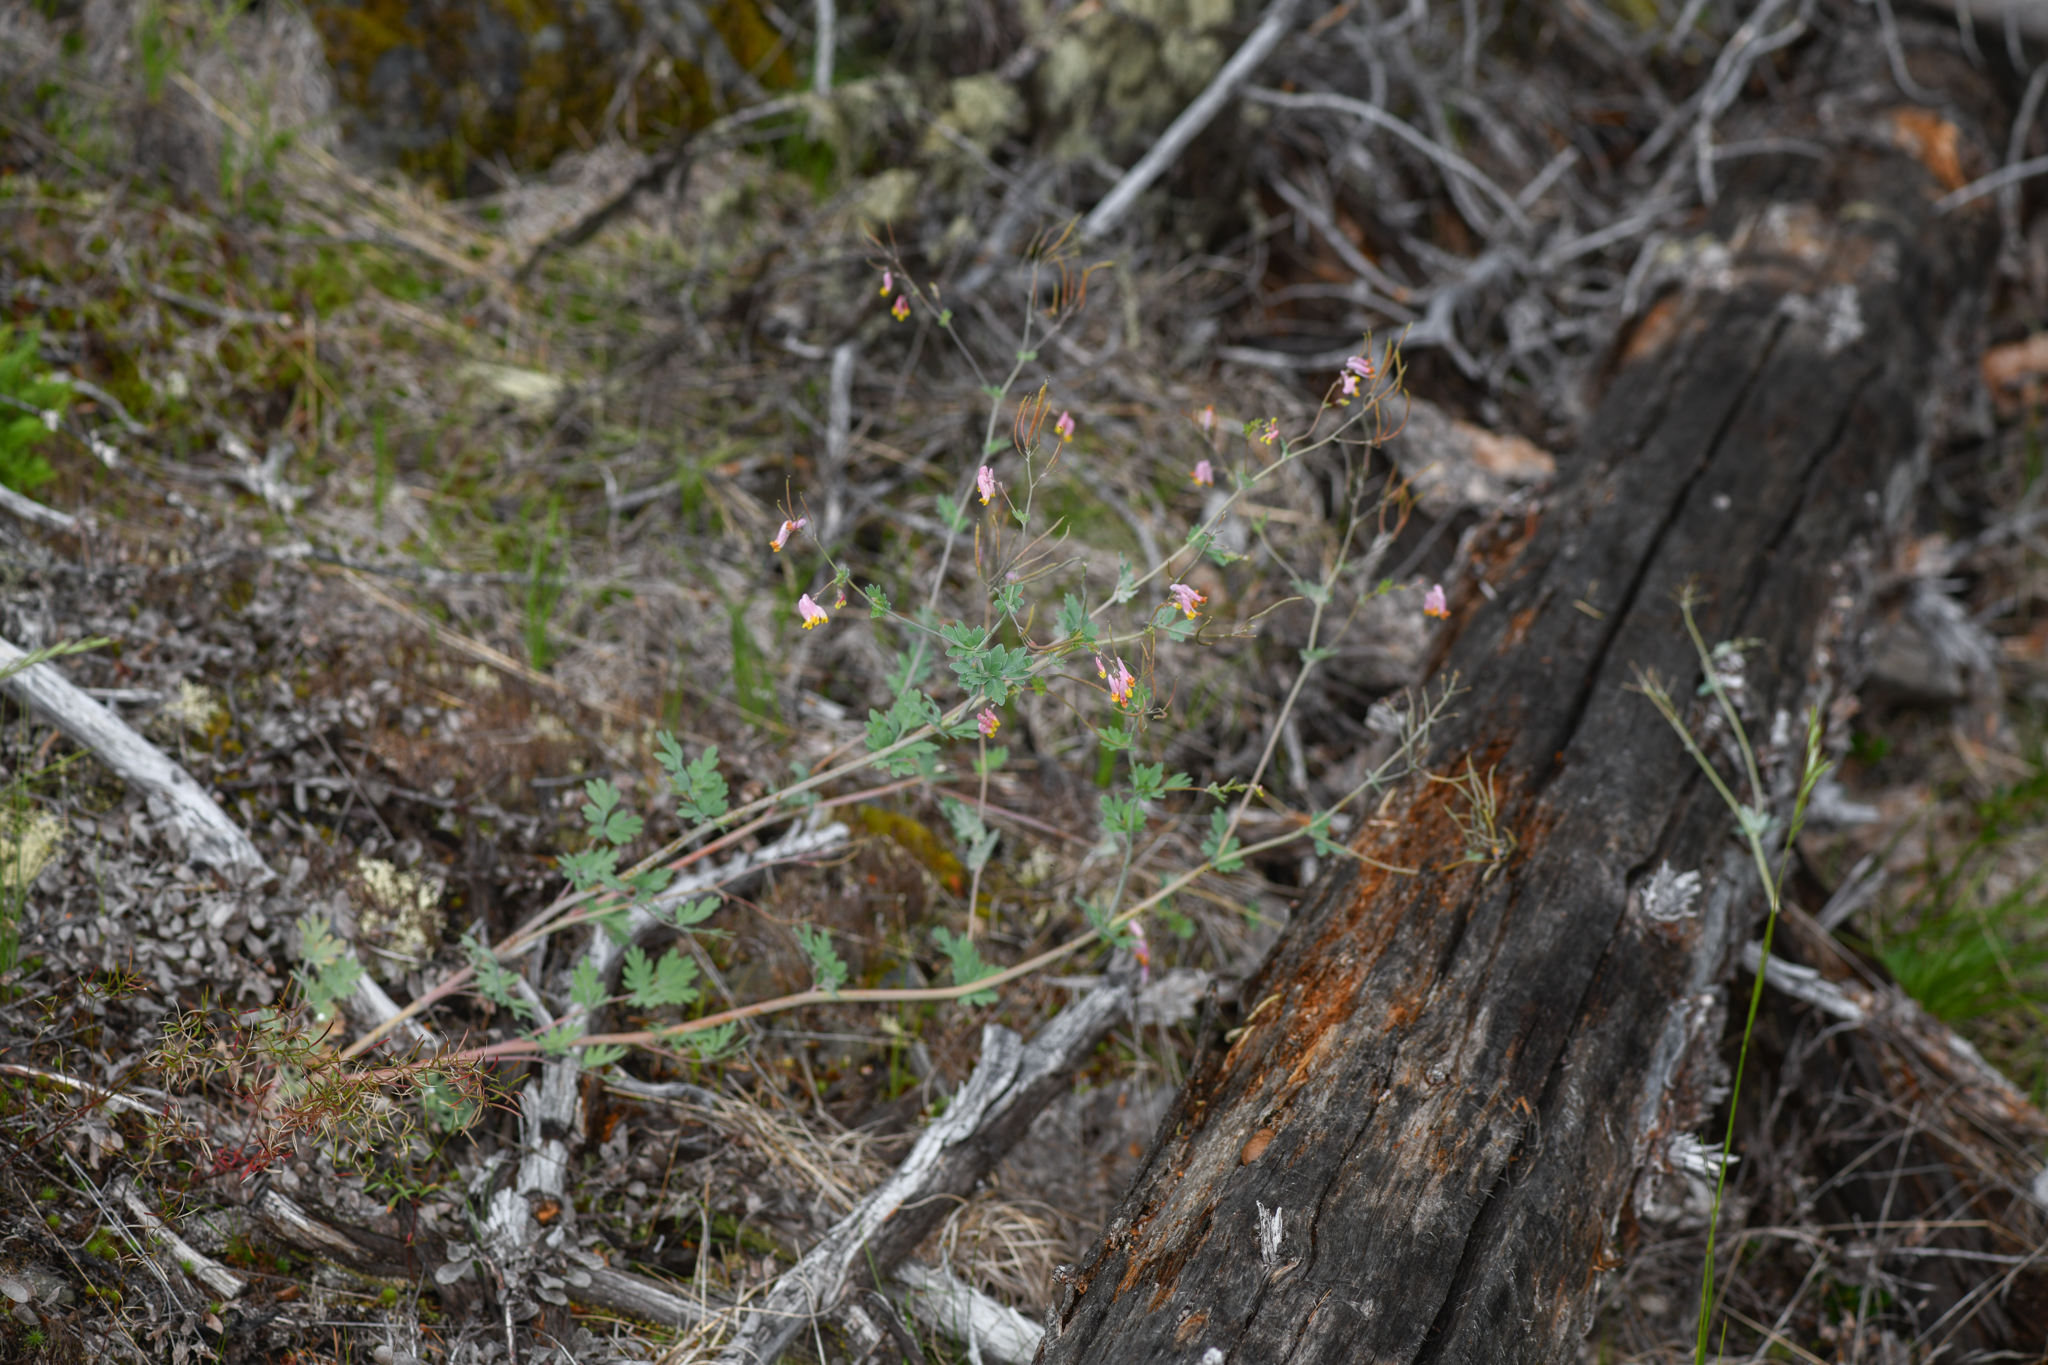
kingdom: Plantae
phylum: Tracheophyta
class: Magnoliopsida
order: Ranunculales
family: Papaveraceae
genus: Capnoides
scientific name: Capnoides sempervirens
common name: Rock harlequin
